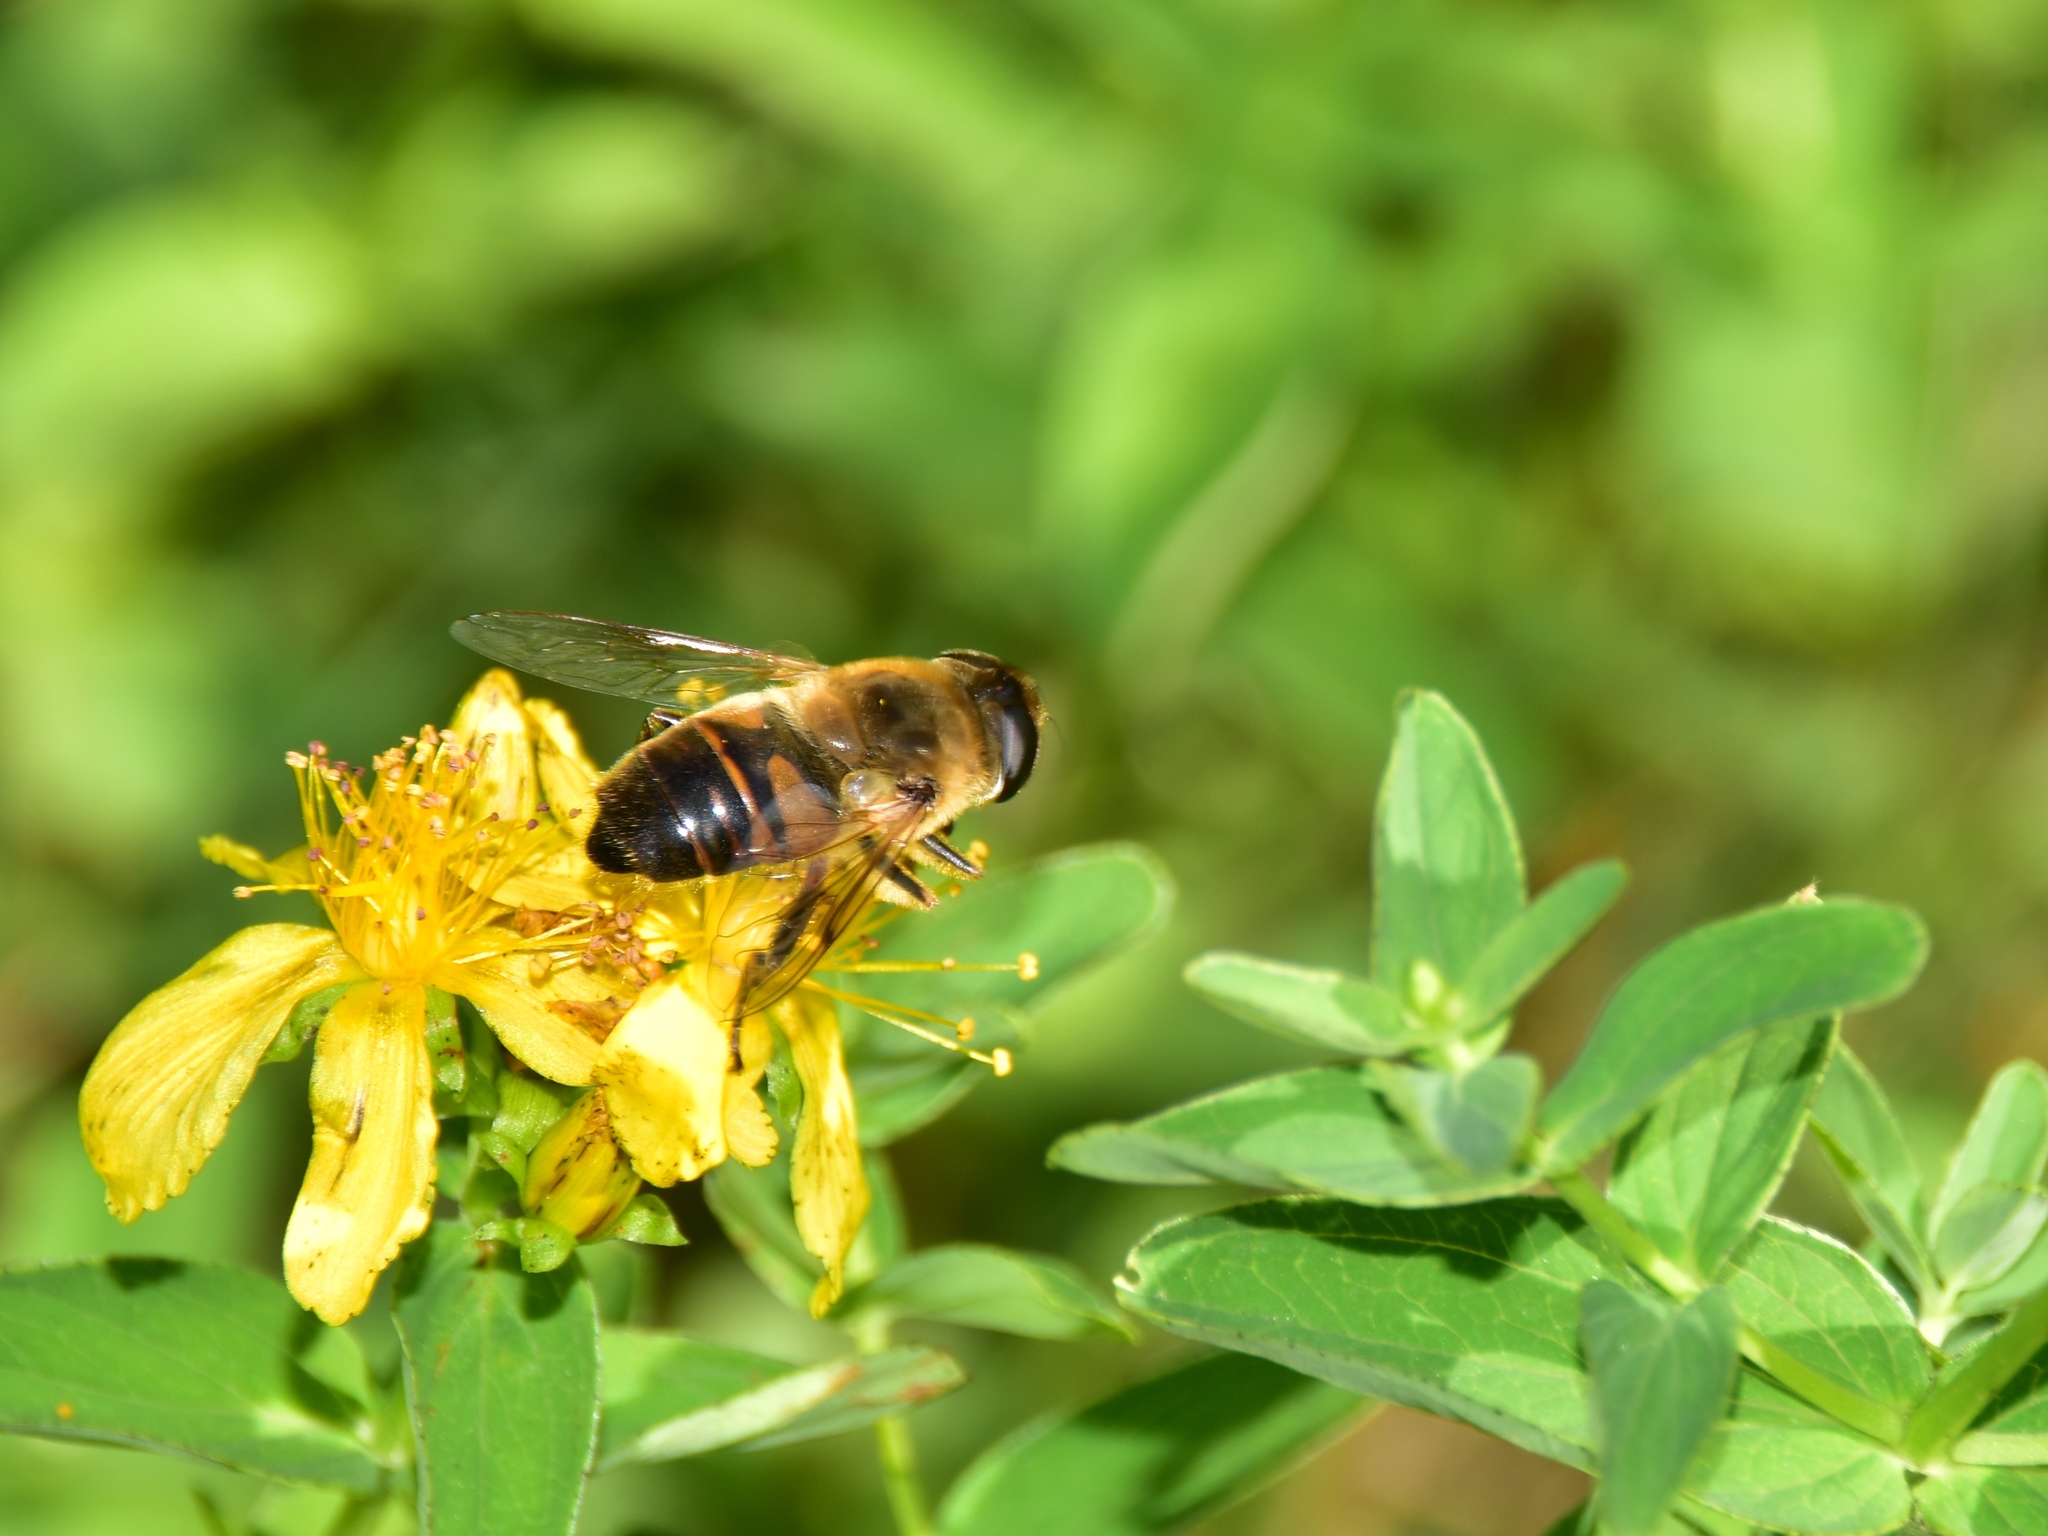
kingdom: Animalia
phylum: Arthropoda
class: Insecta
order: Diptera
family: Syrphidae
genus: Eristalis
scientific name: Eristalis tenax
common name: Drone fly
